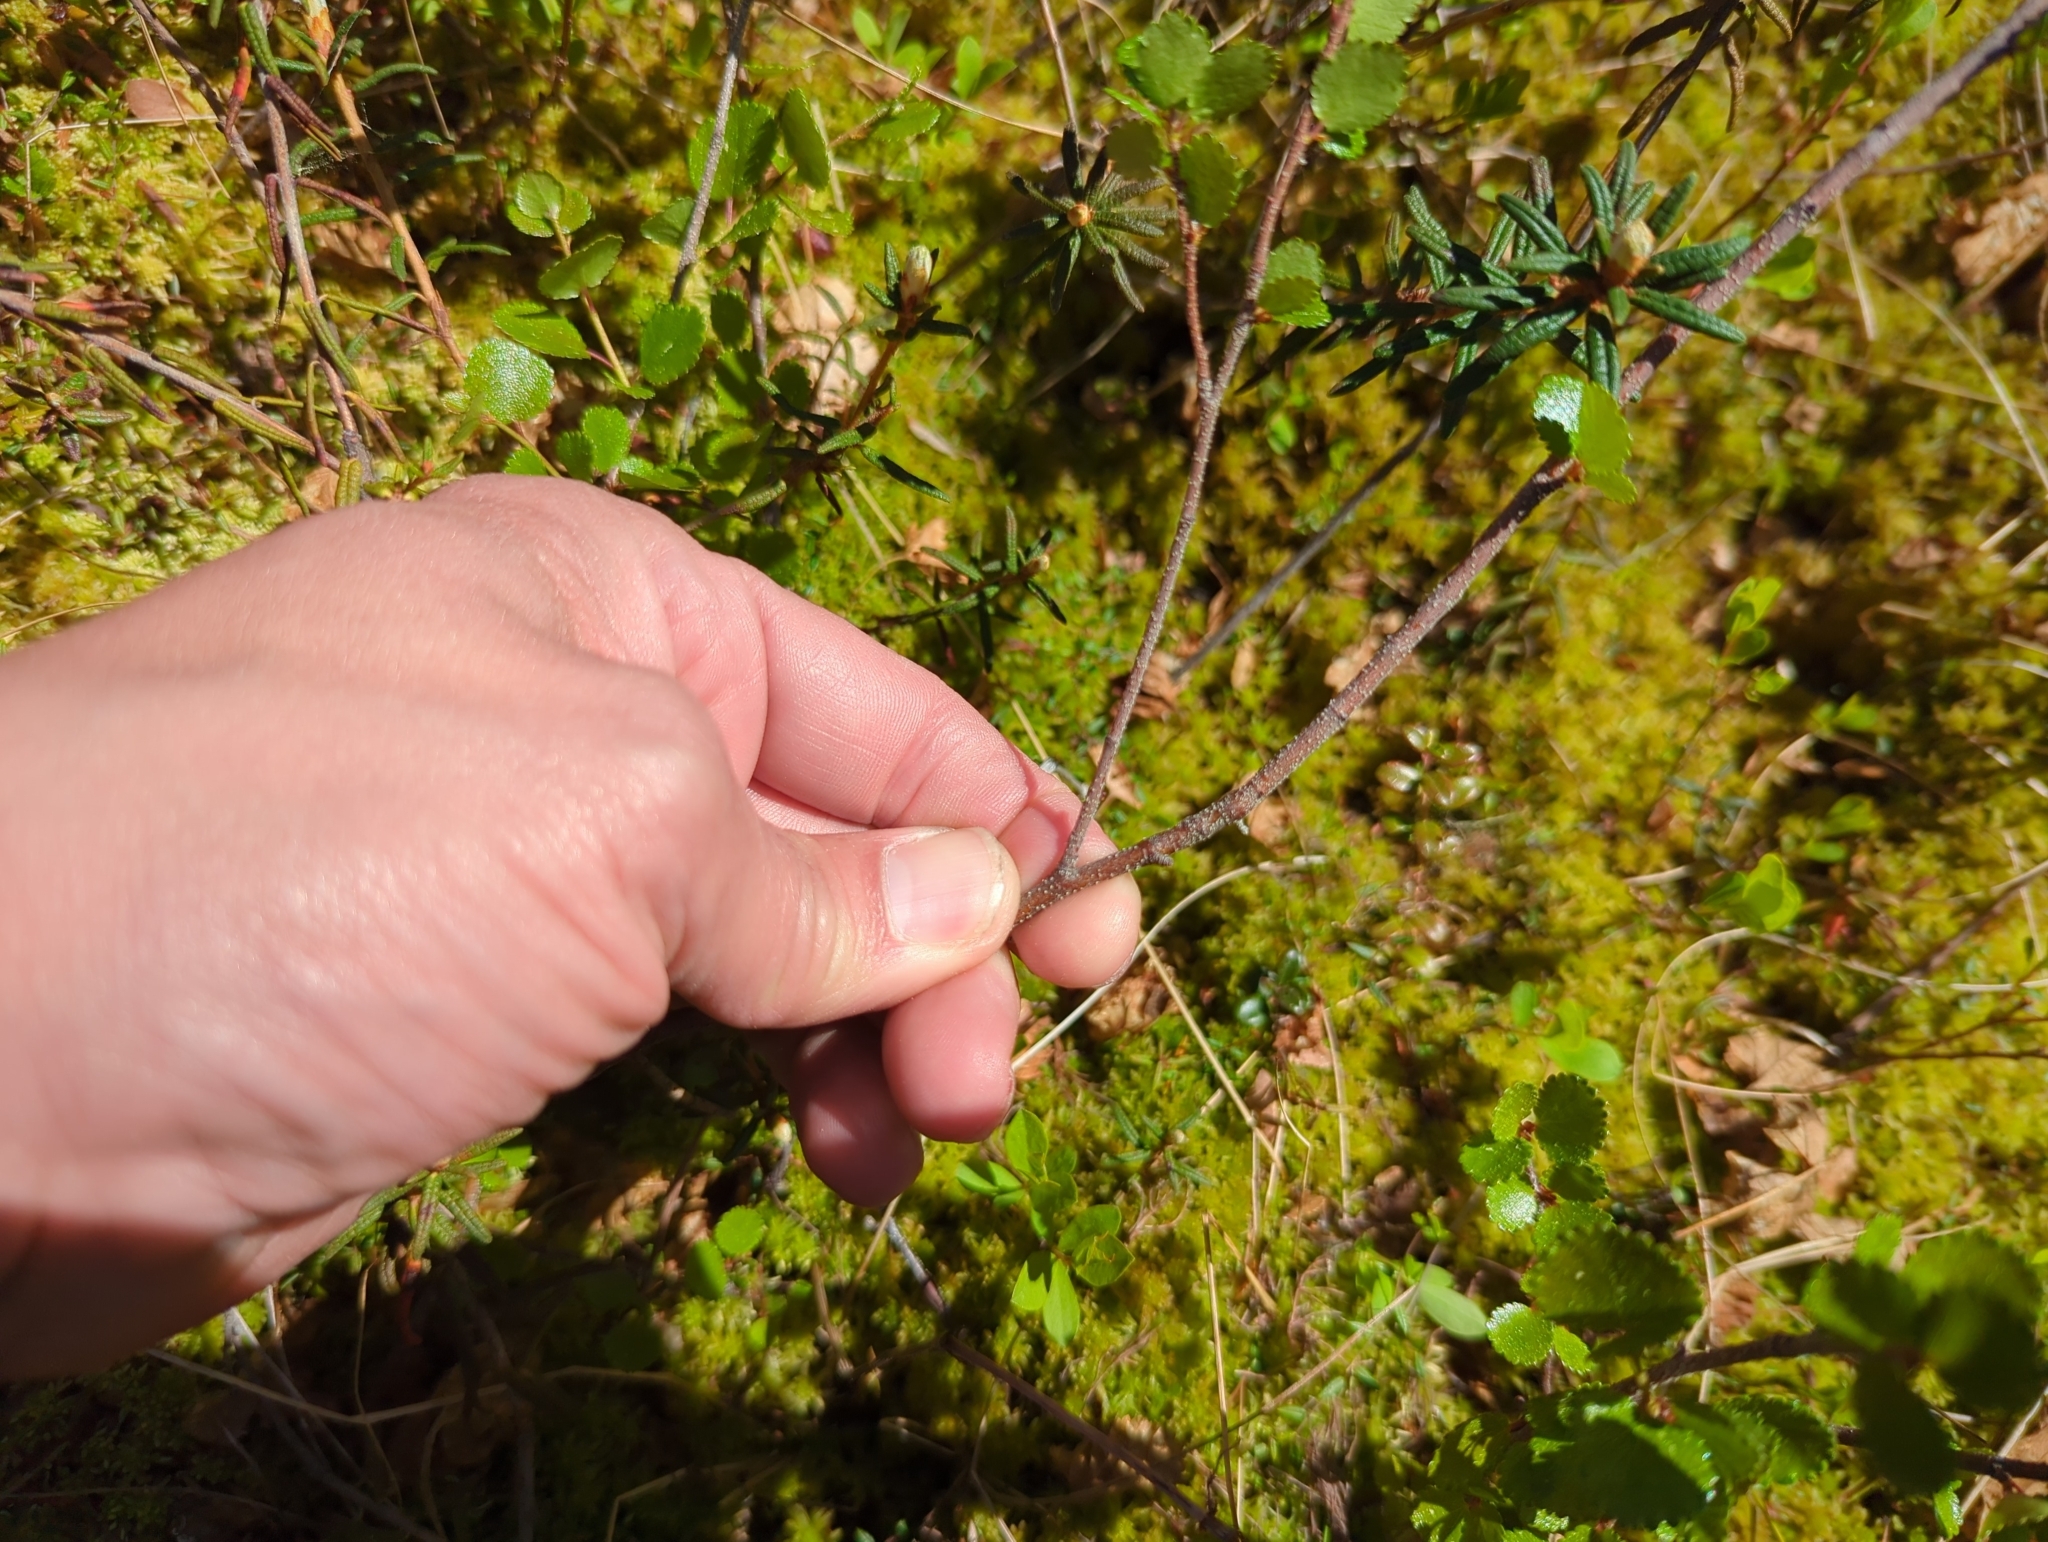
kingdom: Plantae
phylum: Tracheophyta
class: Magnoliopsida
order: Fagales
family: Betulaceae
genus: Betula
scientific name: Betula nana
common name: Arctic dwarf birch
